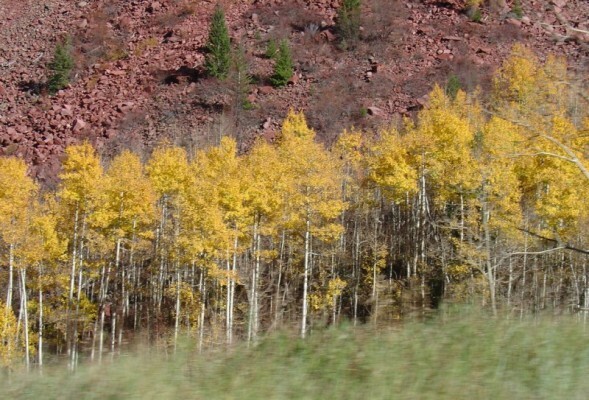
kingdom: Plantae
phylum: Tracheophyta
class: Magnoliopsida
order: Malpighiales
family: Salicaceae
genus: Populus
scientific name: Populus tremuloides
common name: Quaking aspen
